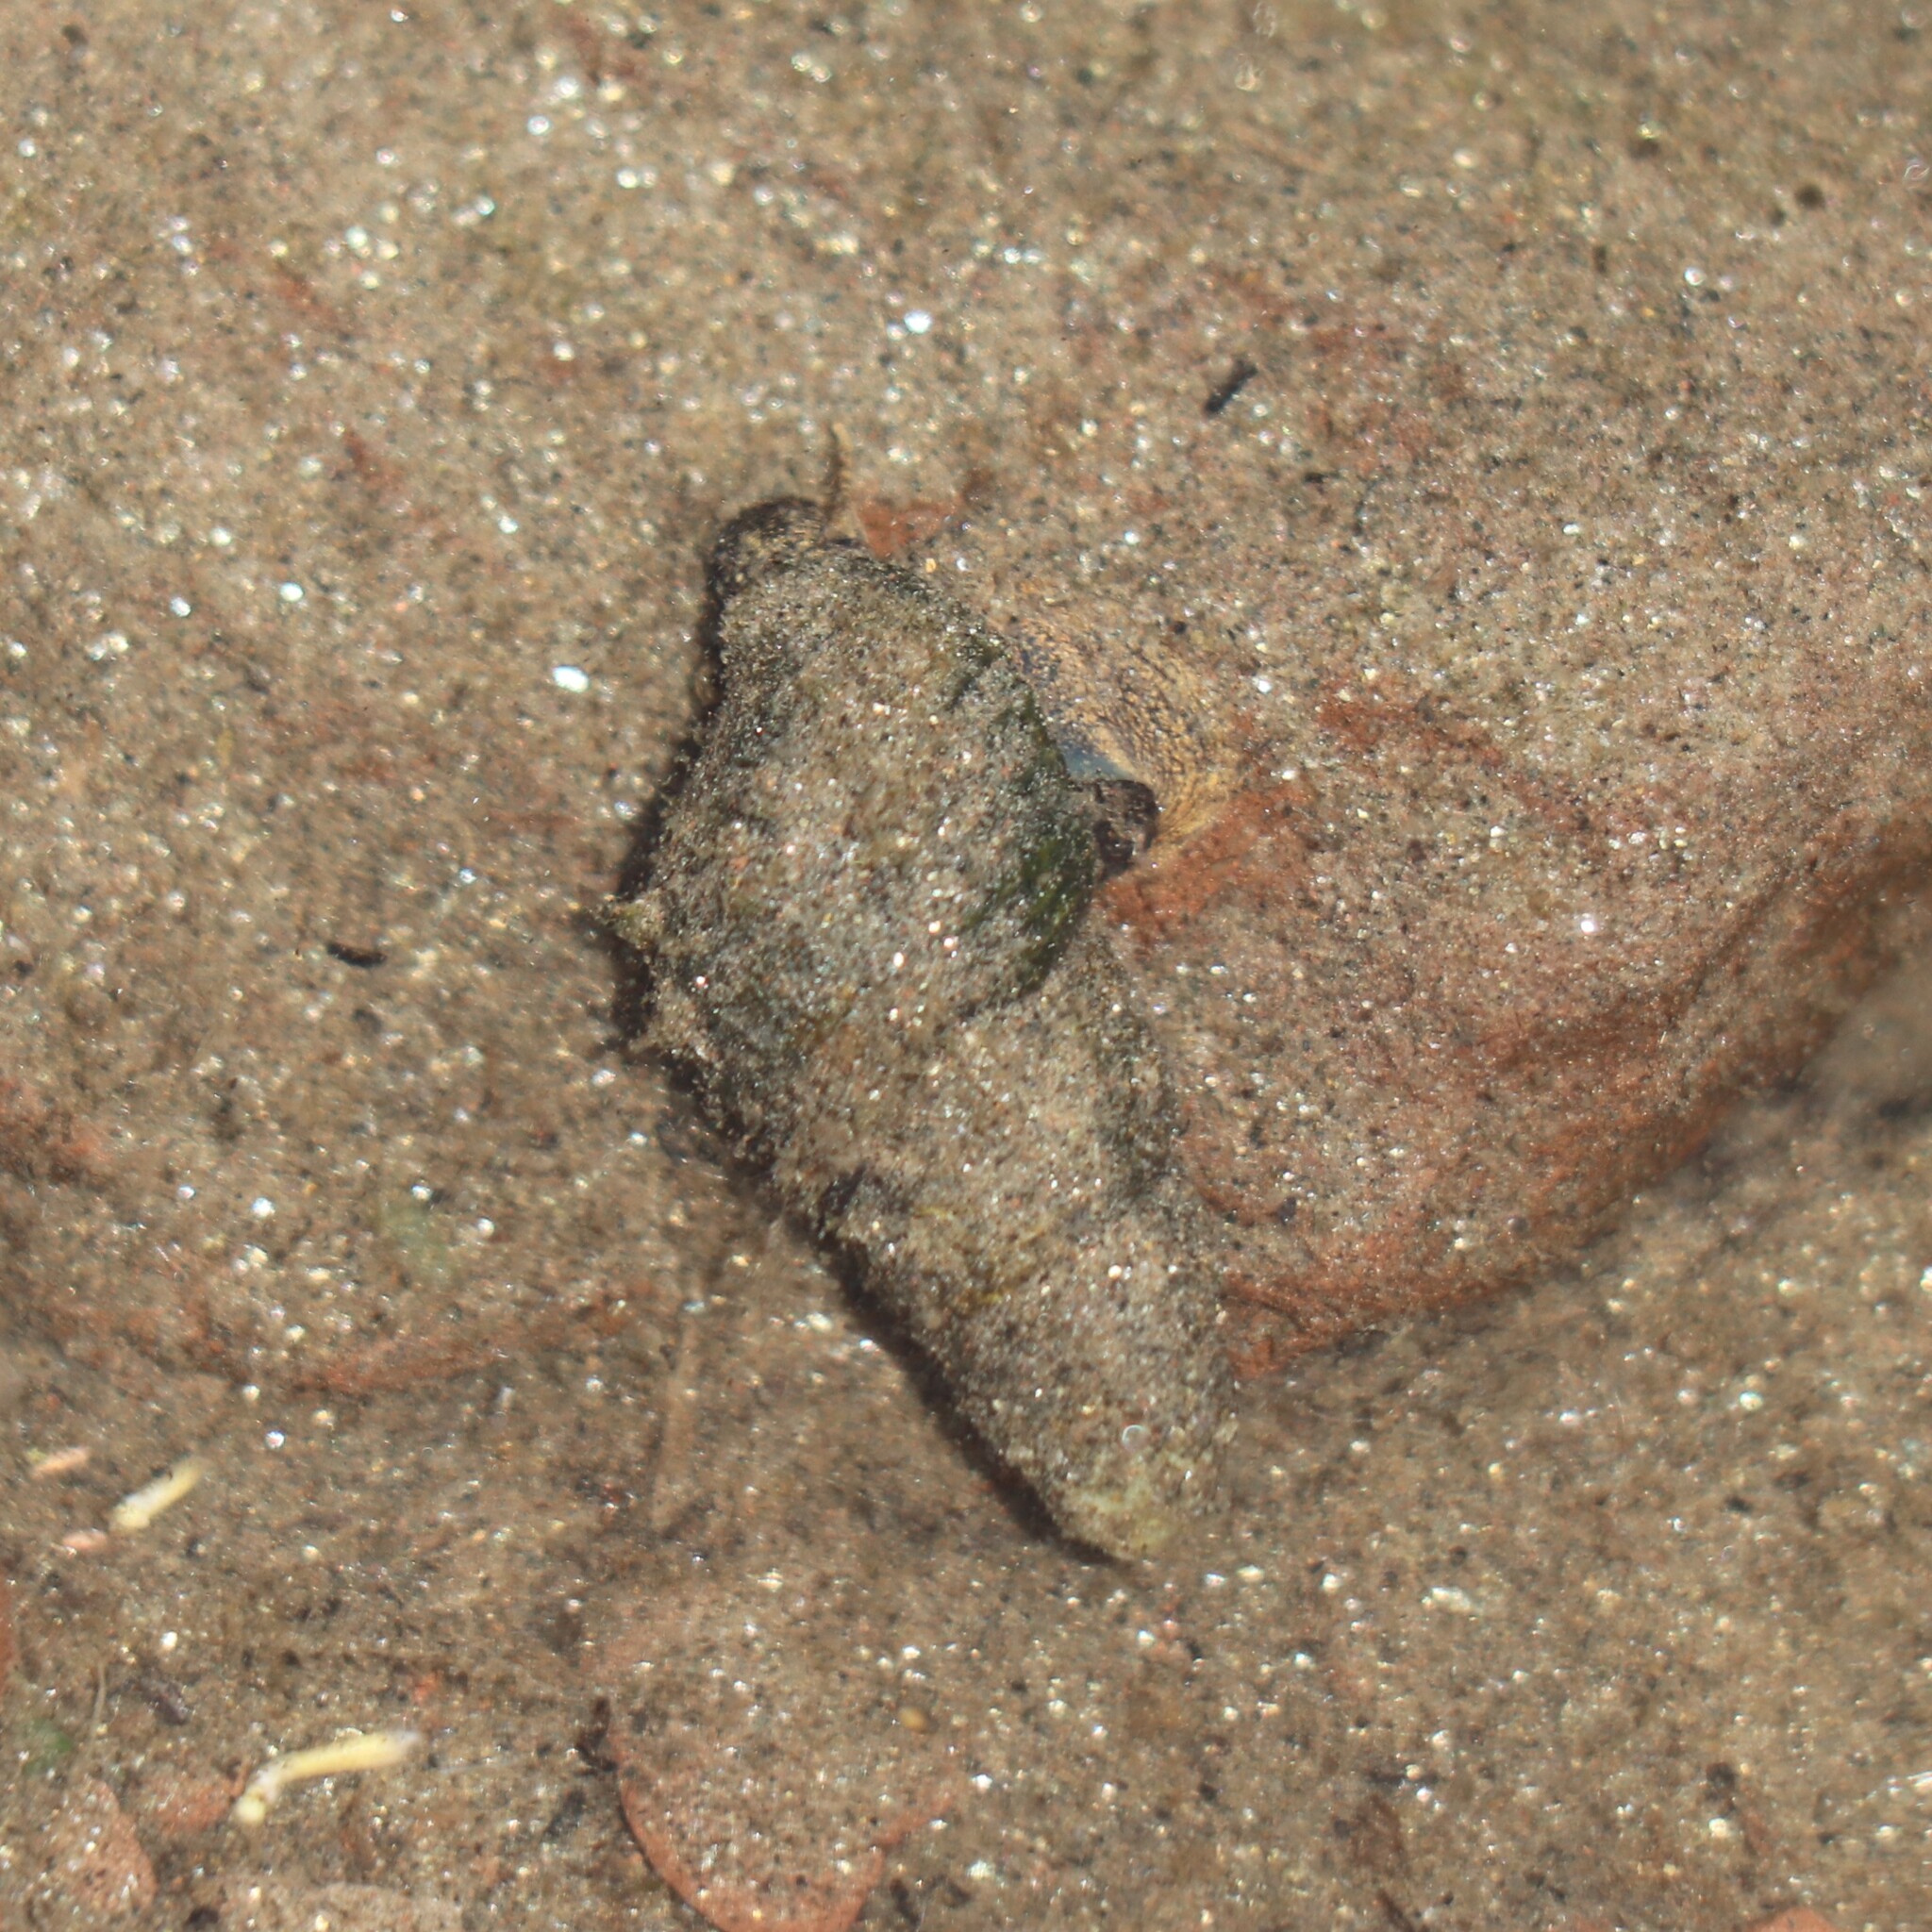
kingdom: Animalia
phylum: Mollusca
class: Gastropoda
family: Pleuroceridae
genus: Elimia
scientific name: Elimia virginica
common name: Piedmont elimia
